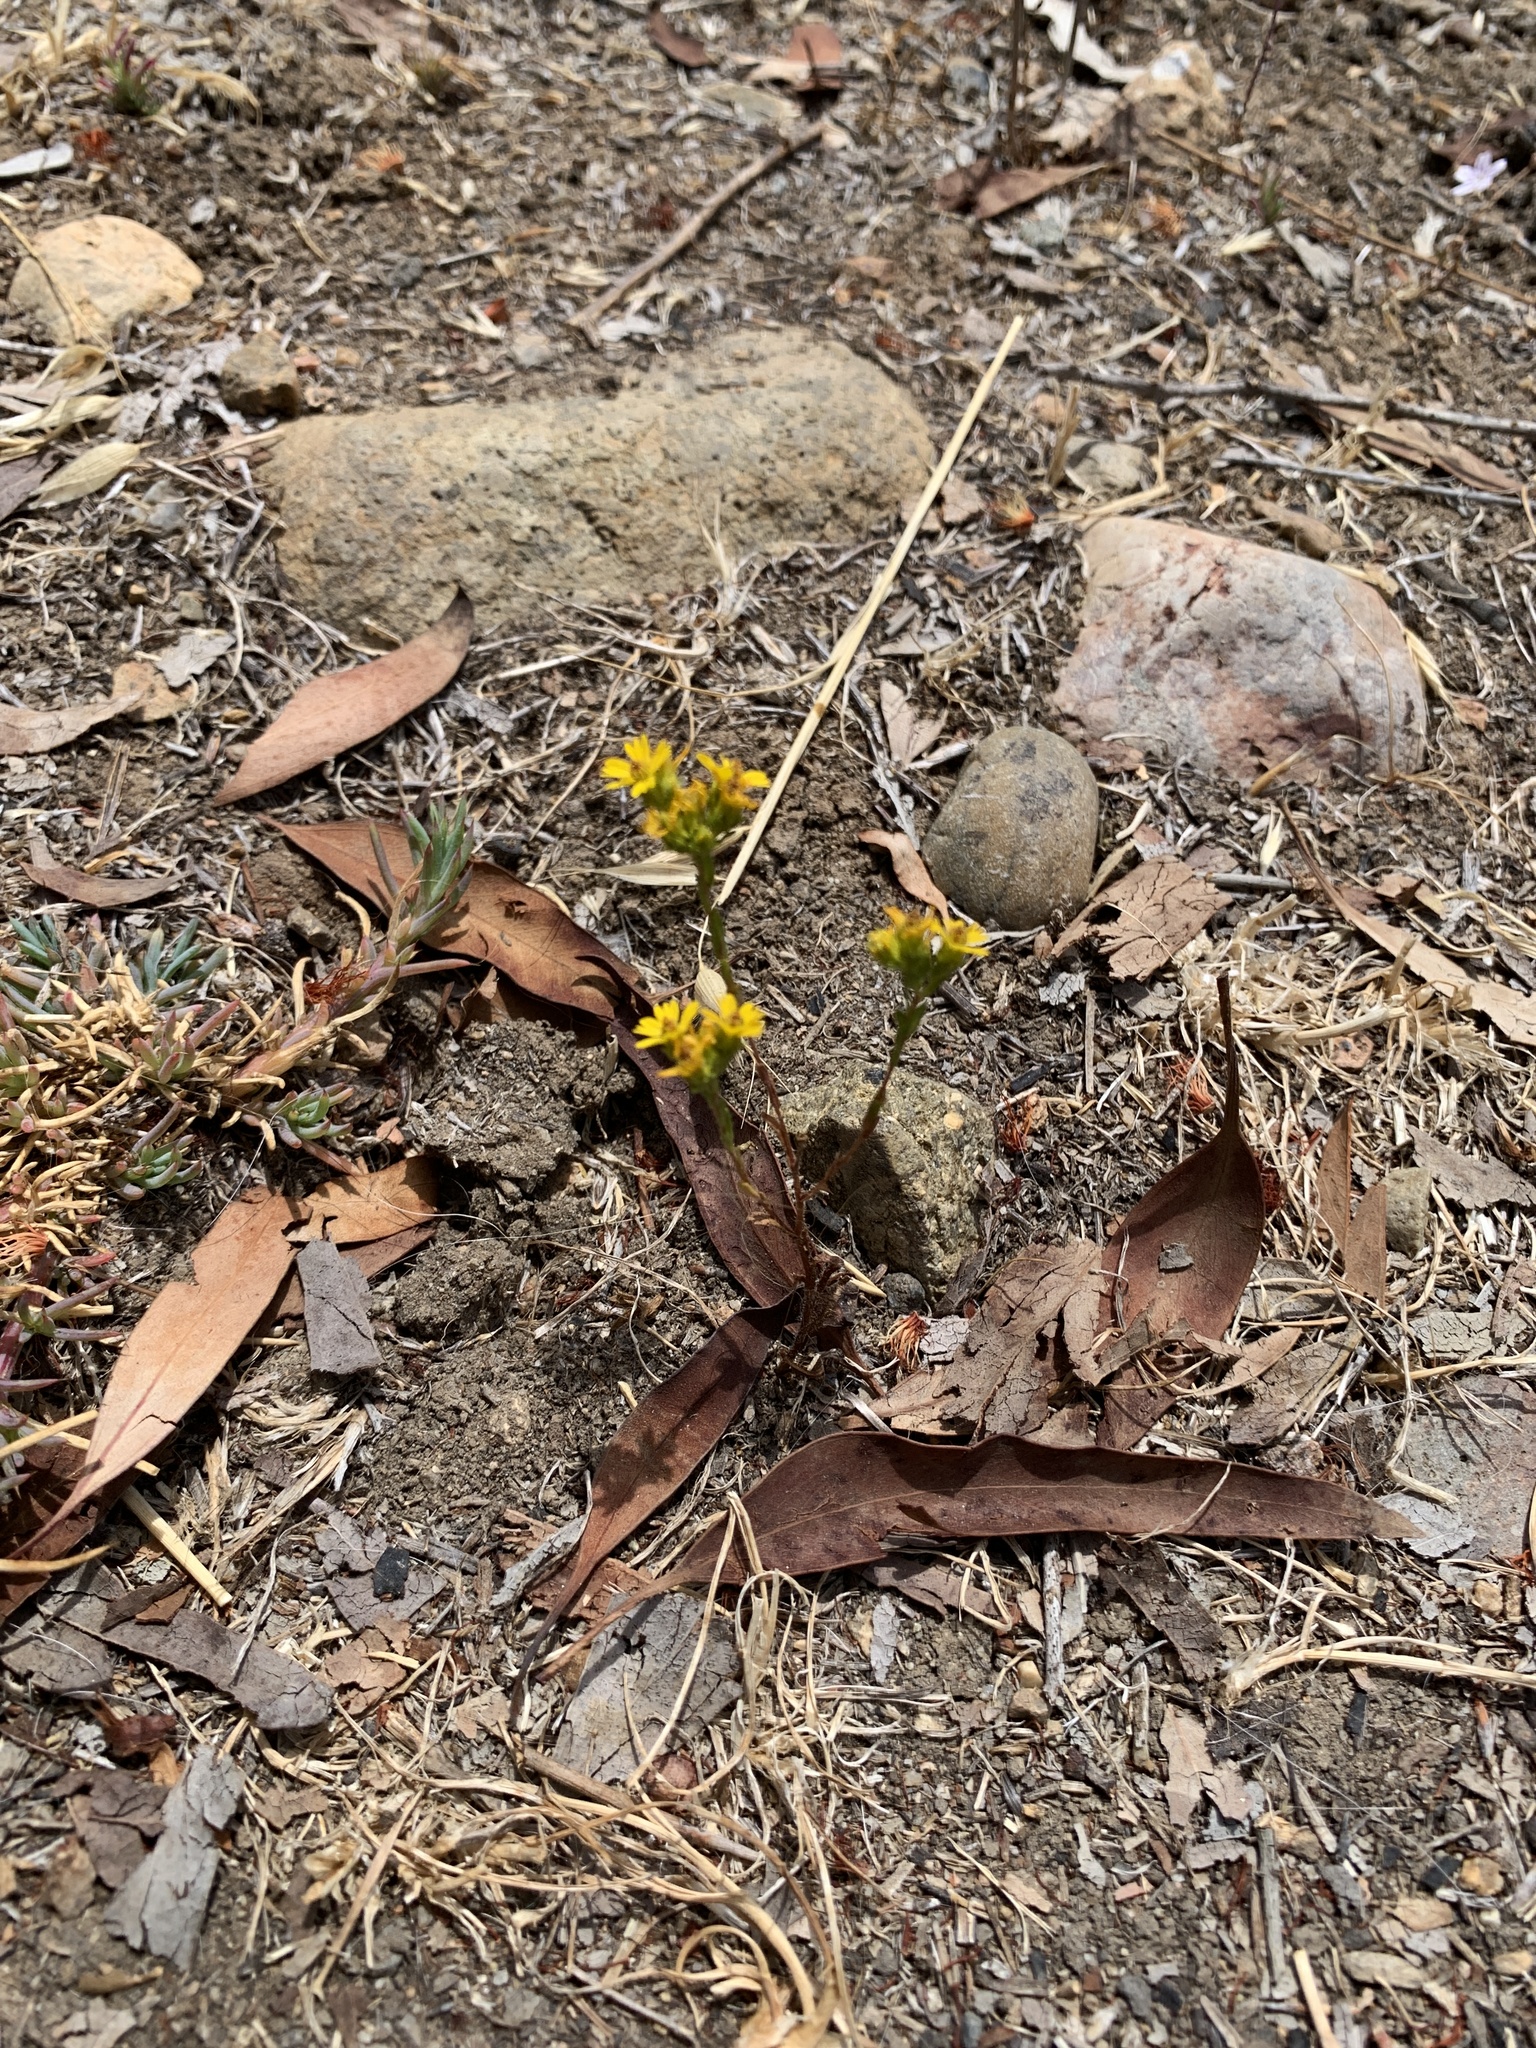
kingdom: Plantae
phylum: Tracheophyta
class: Magnoliopsida
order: Asterales
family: Asteraceae
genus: Deinandra
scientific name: Deinandra fasciculata
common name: Clustered tarweed
